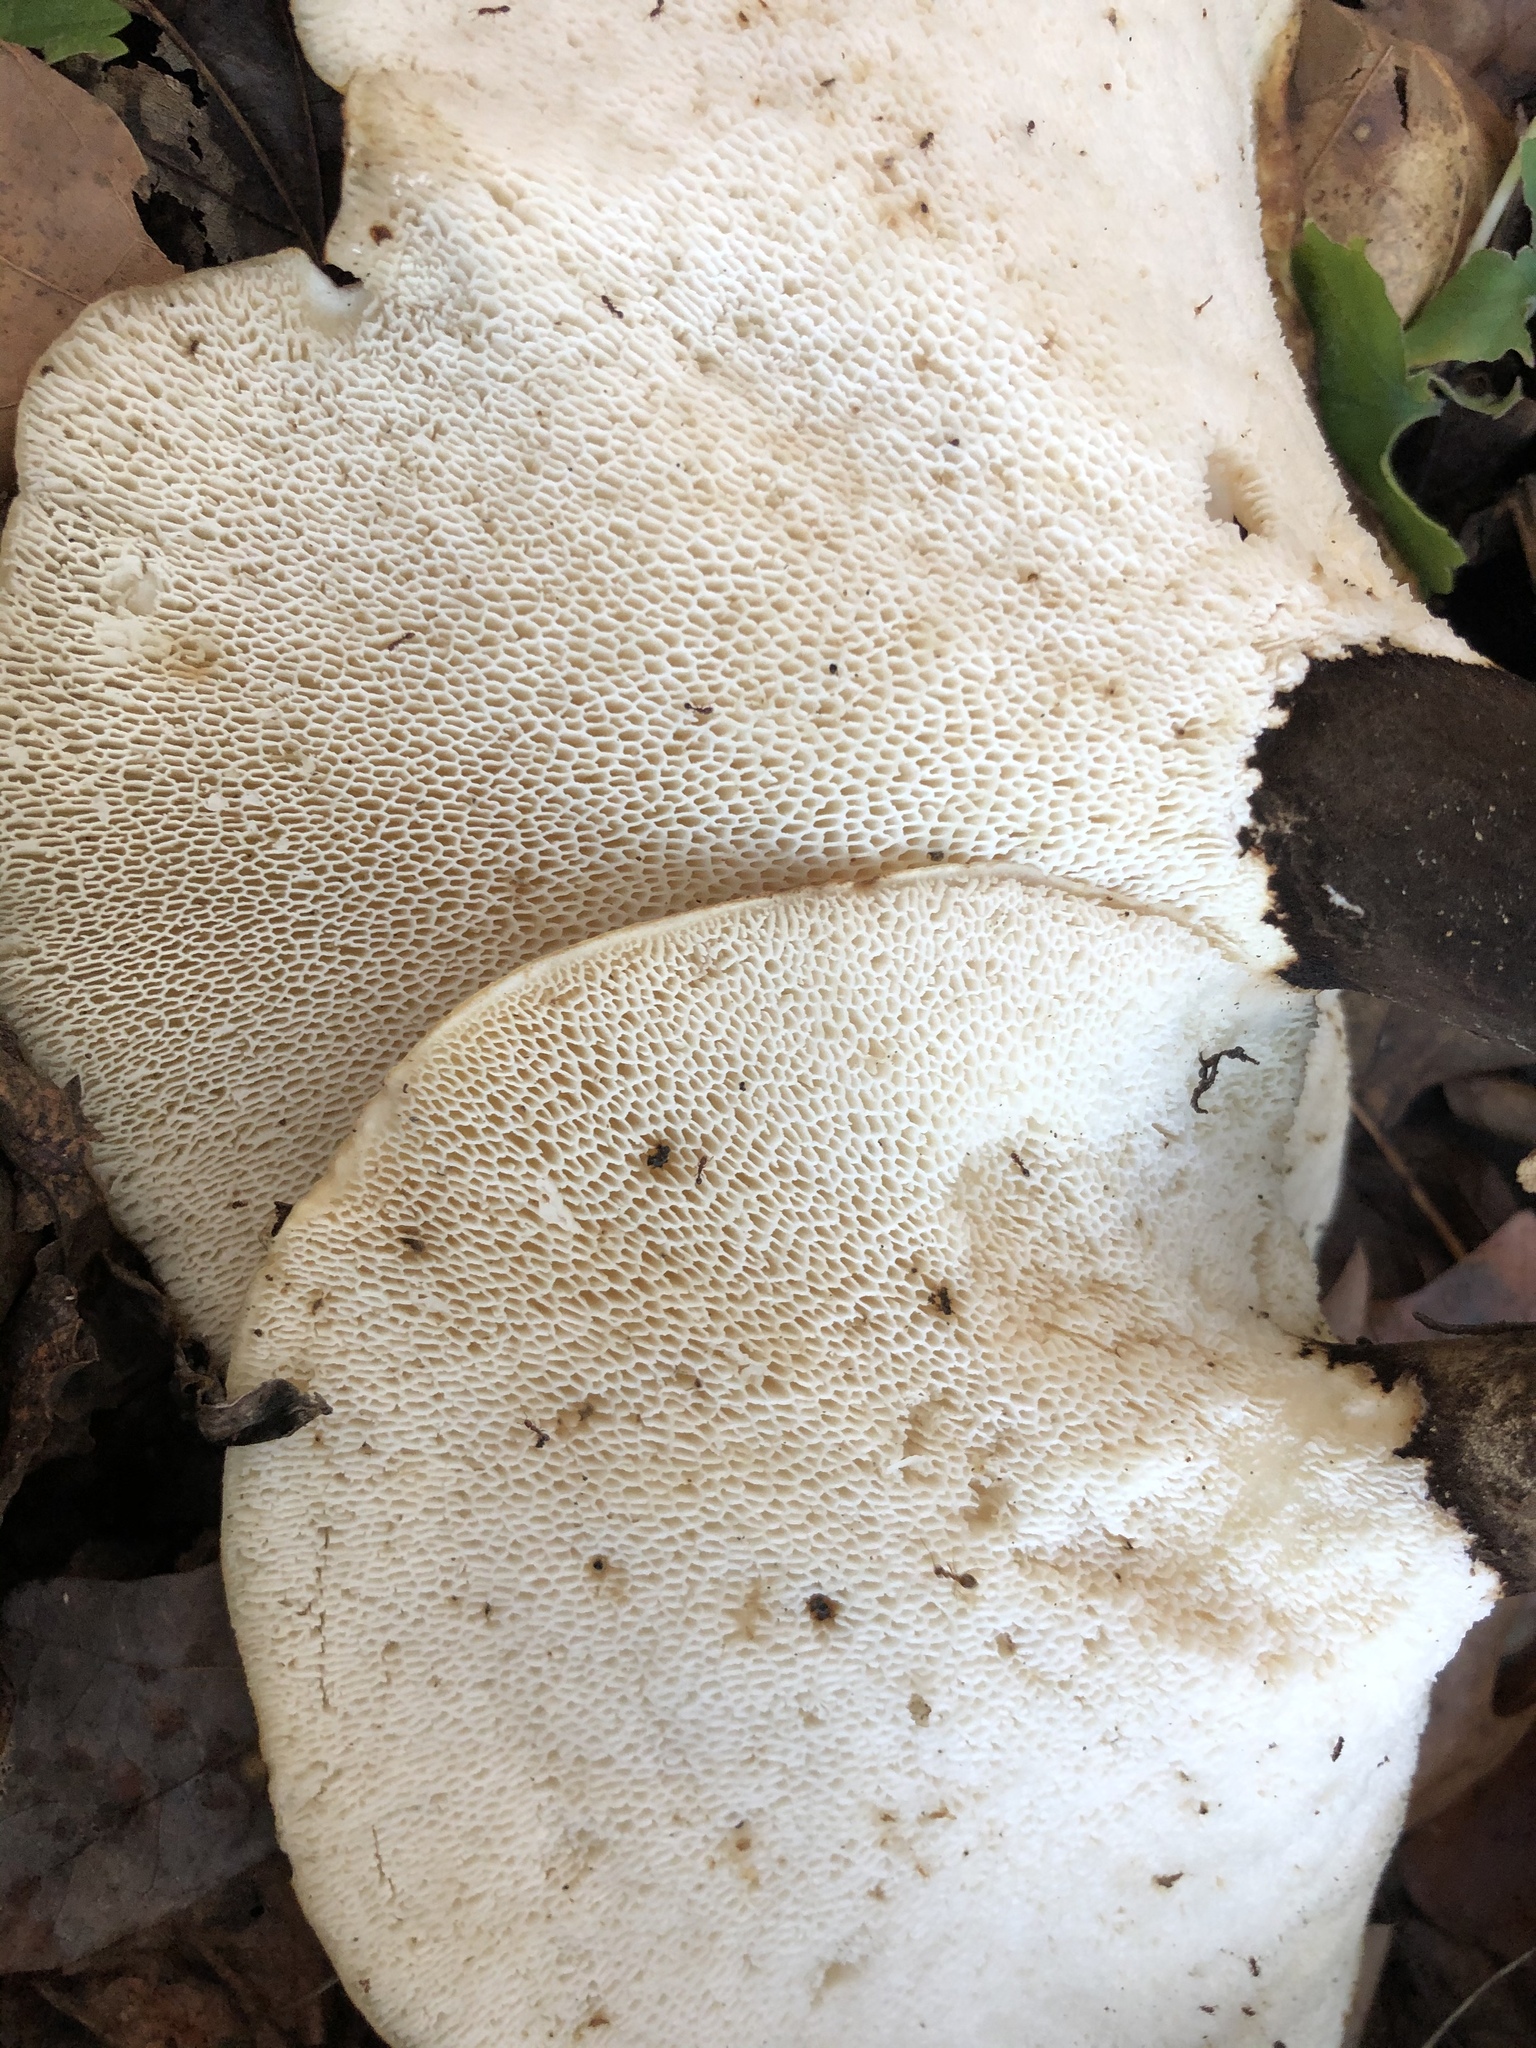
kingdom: Fungi
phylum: Basidiomycota
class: Agaricomycetes
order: Polyporales
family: Polyporaceae
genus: Cerioporus
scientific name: Cerioporus squamosus
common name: Dryad's saddle
